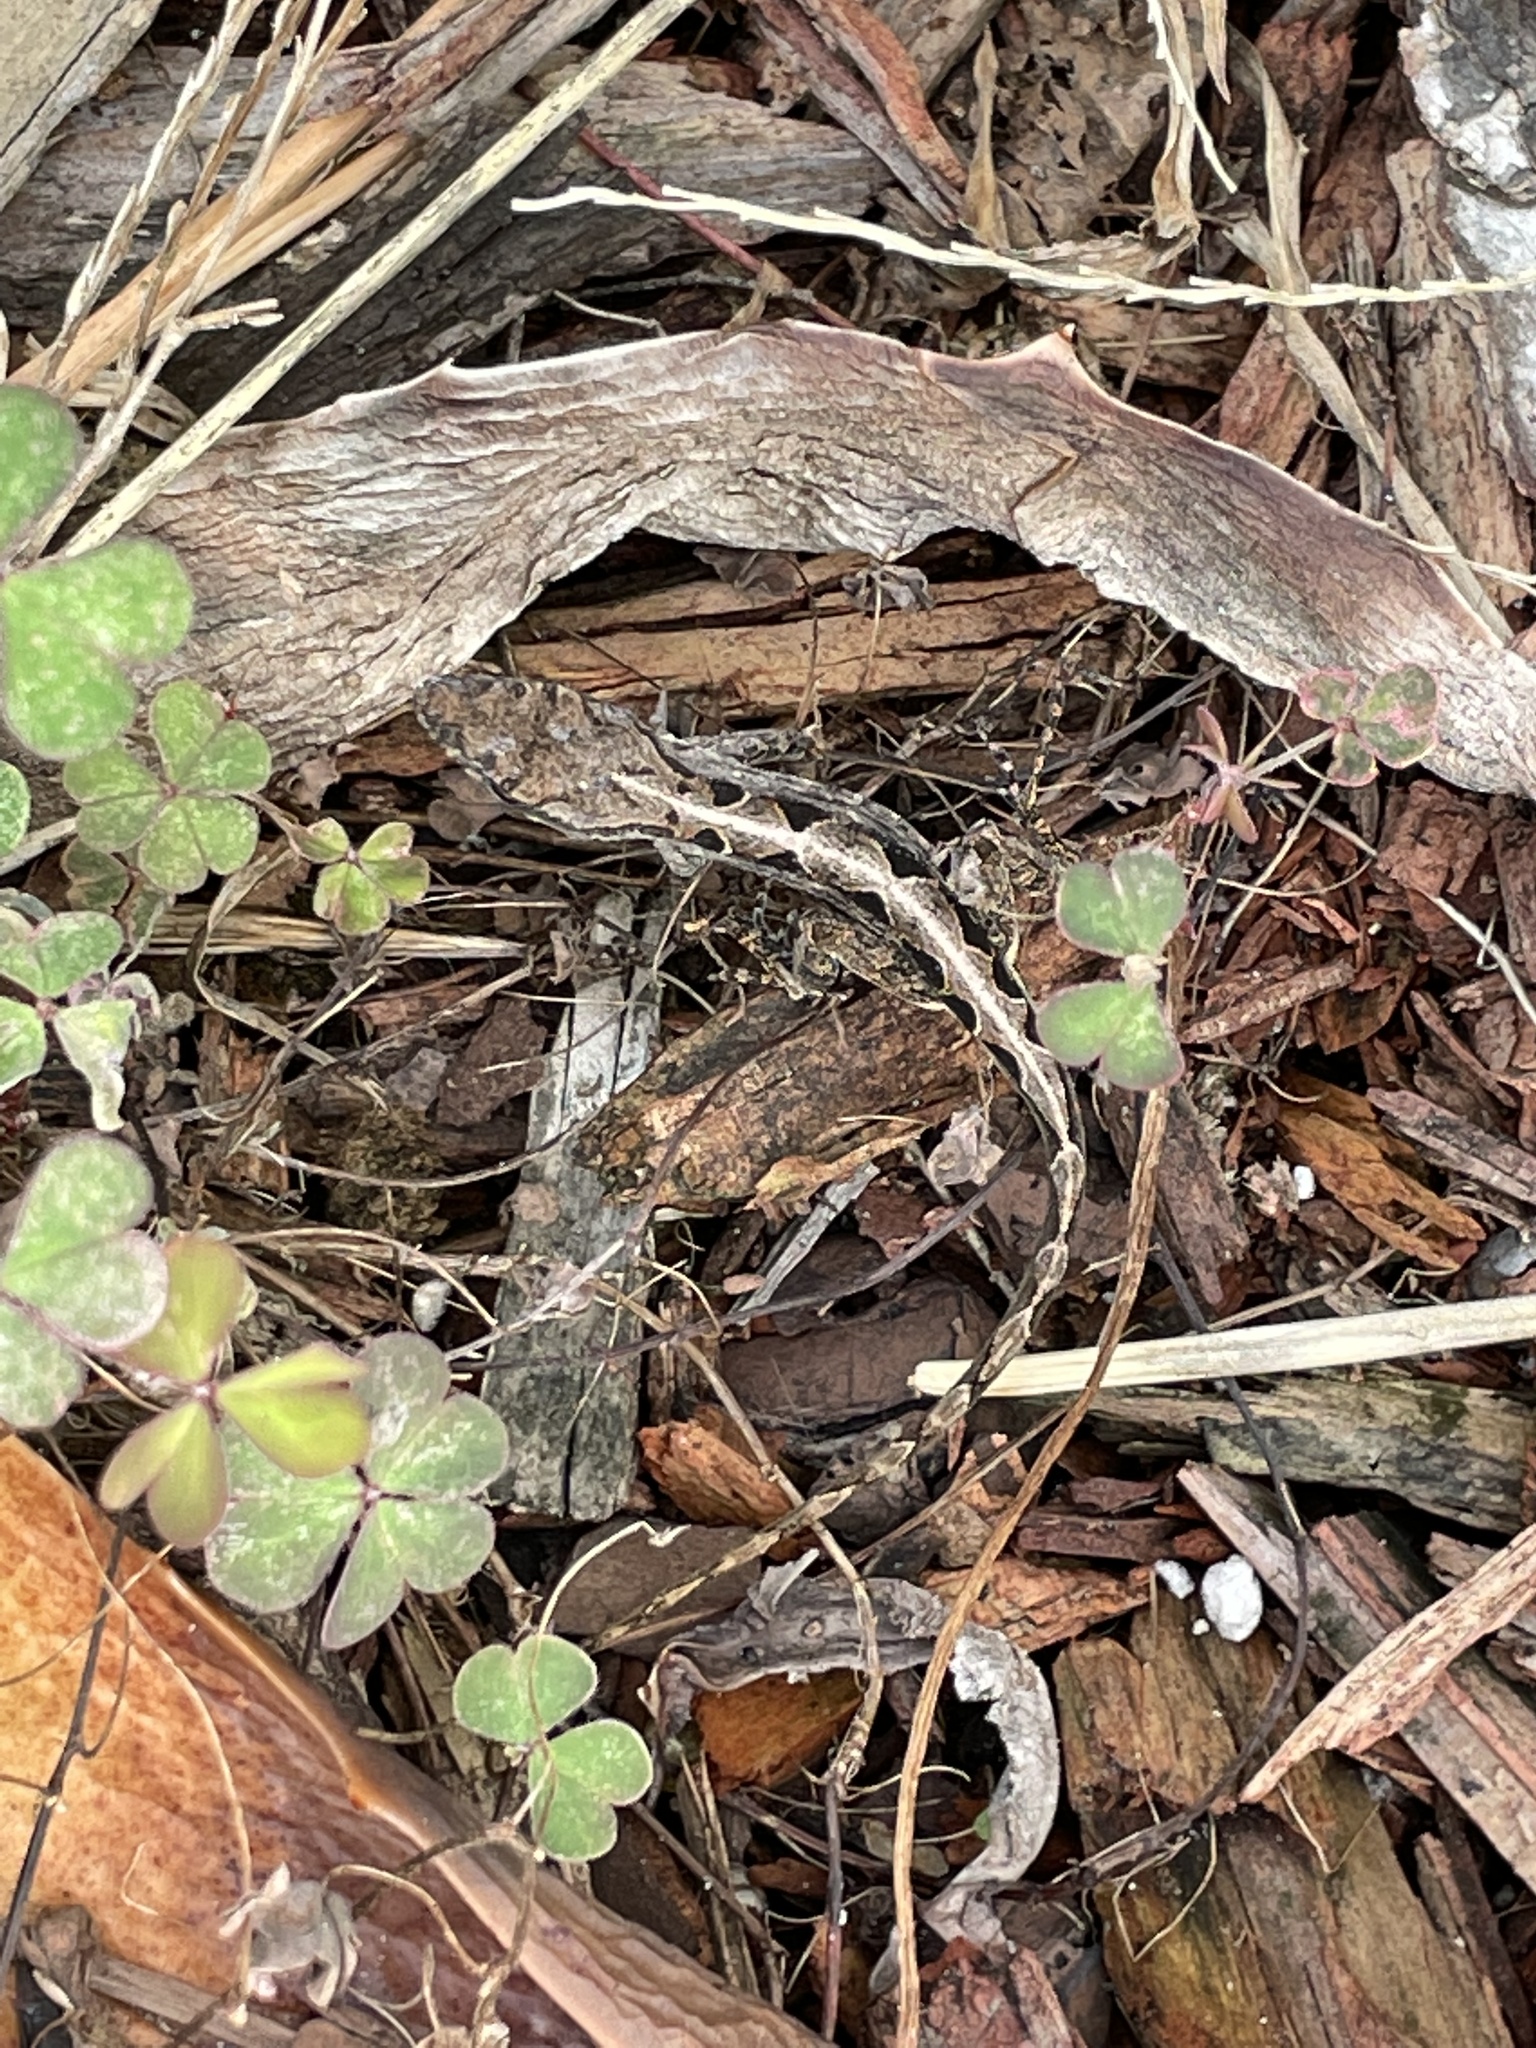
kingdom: Animalia
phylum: Chordata
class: Squamata
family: Dactyloidae
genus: Anolis
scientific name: Anolis sagrei
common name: Brown anole
